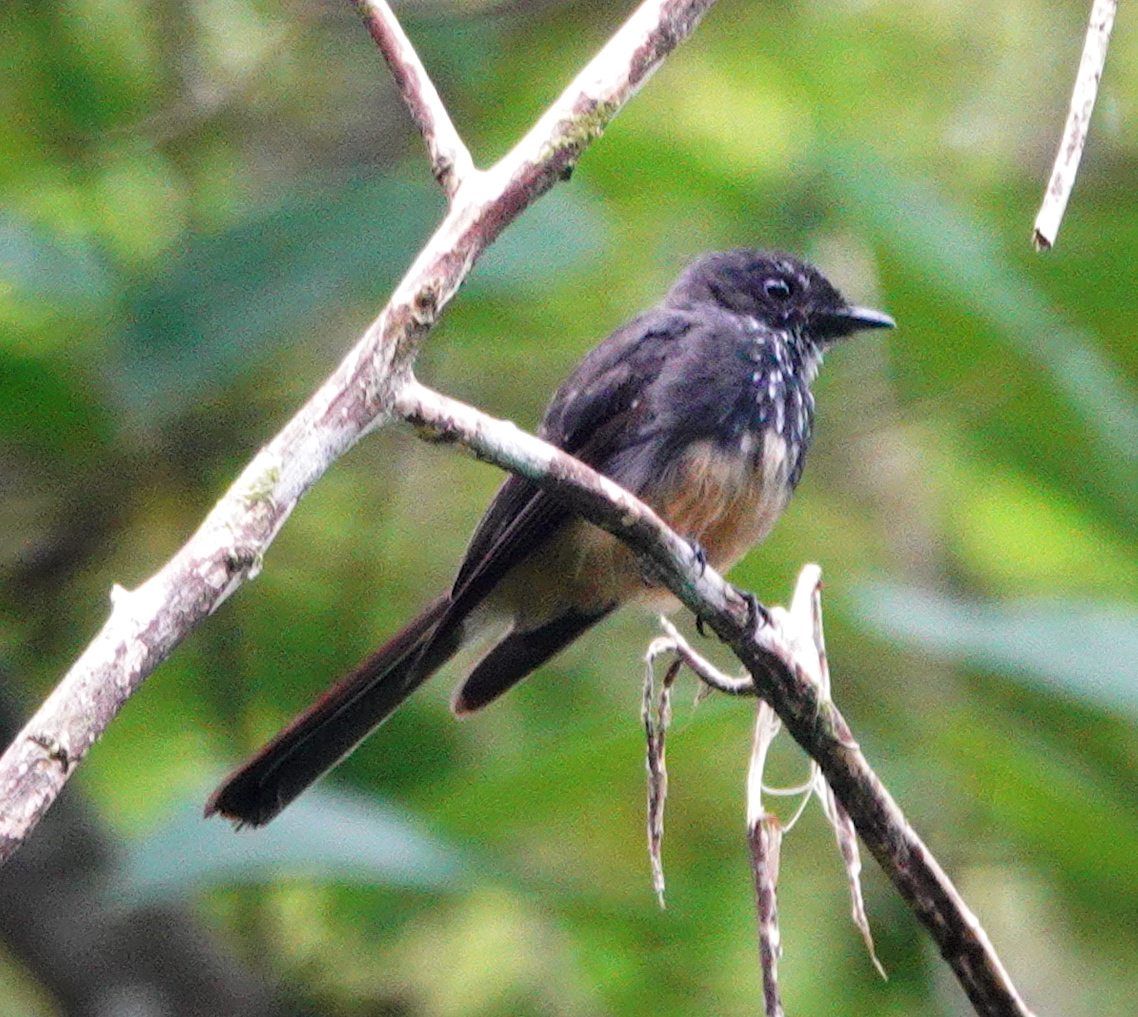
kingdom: Animalia
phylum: Chordata
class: Aves
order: Passeriformes
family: Rhipiduridae
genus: Rhipidura
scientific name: Rhipidura rufiventris
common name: Northern fantail
